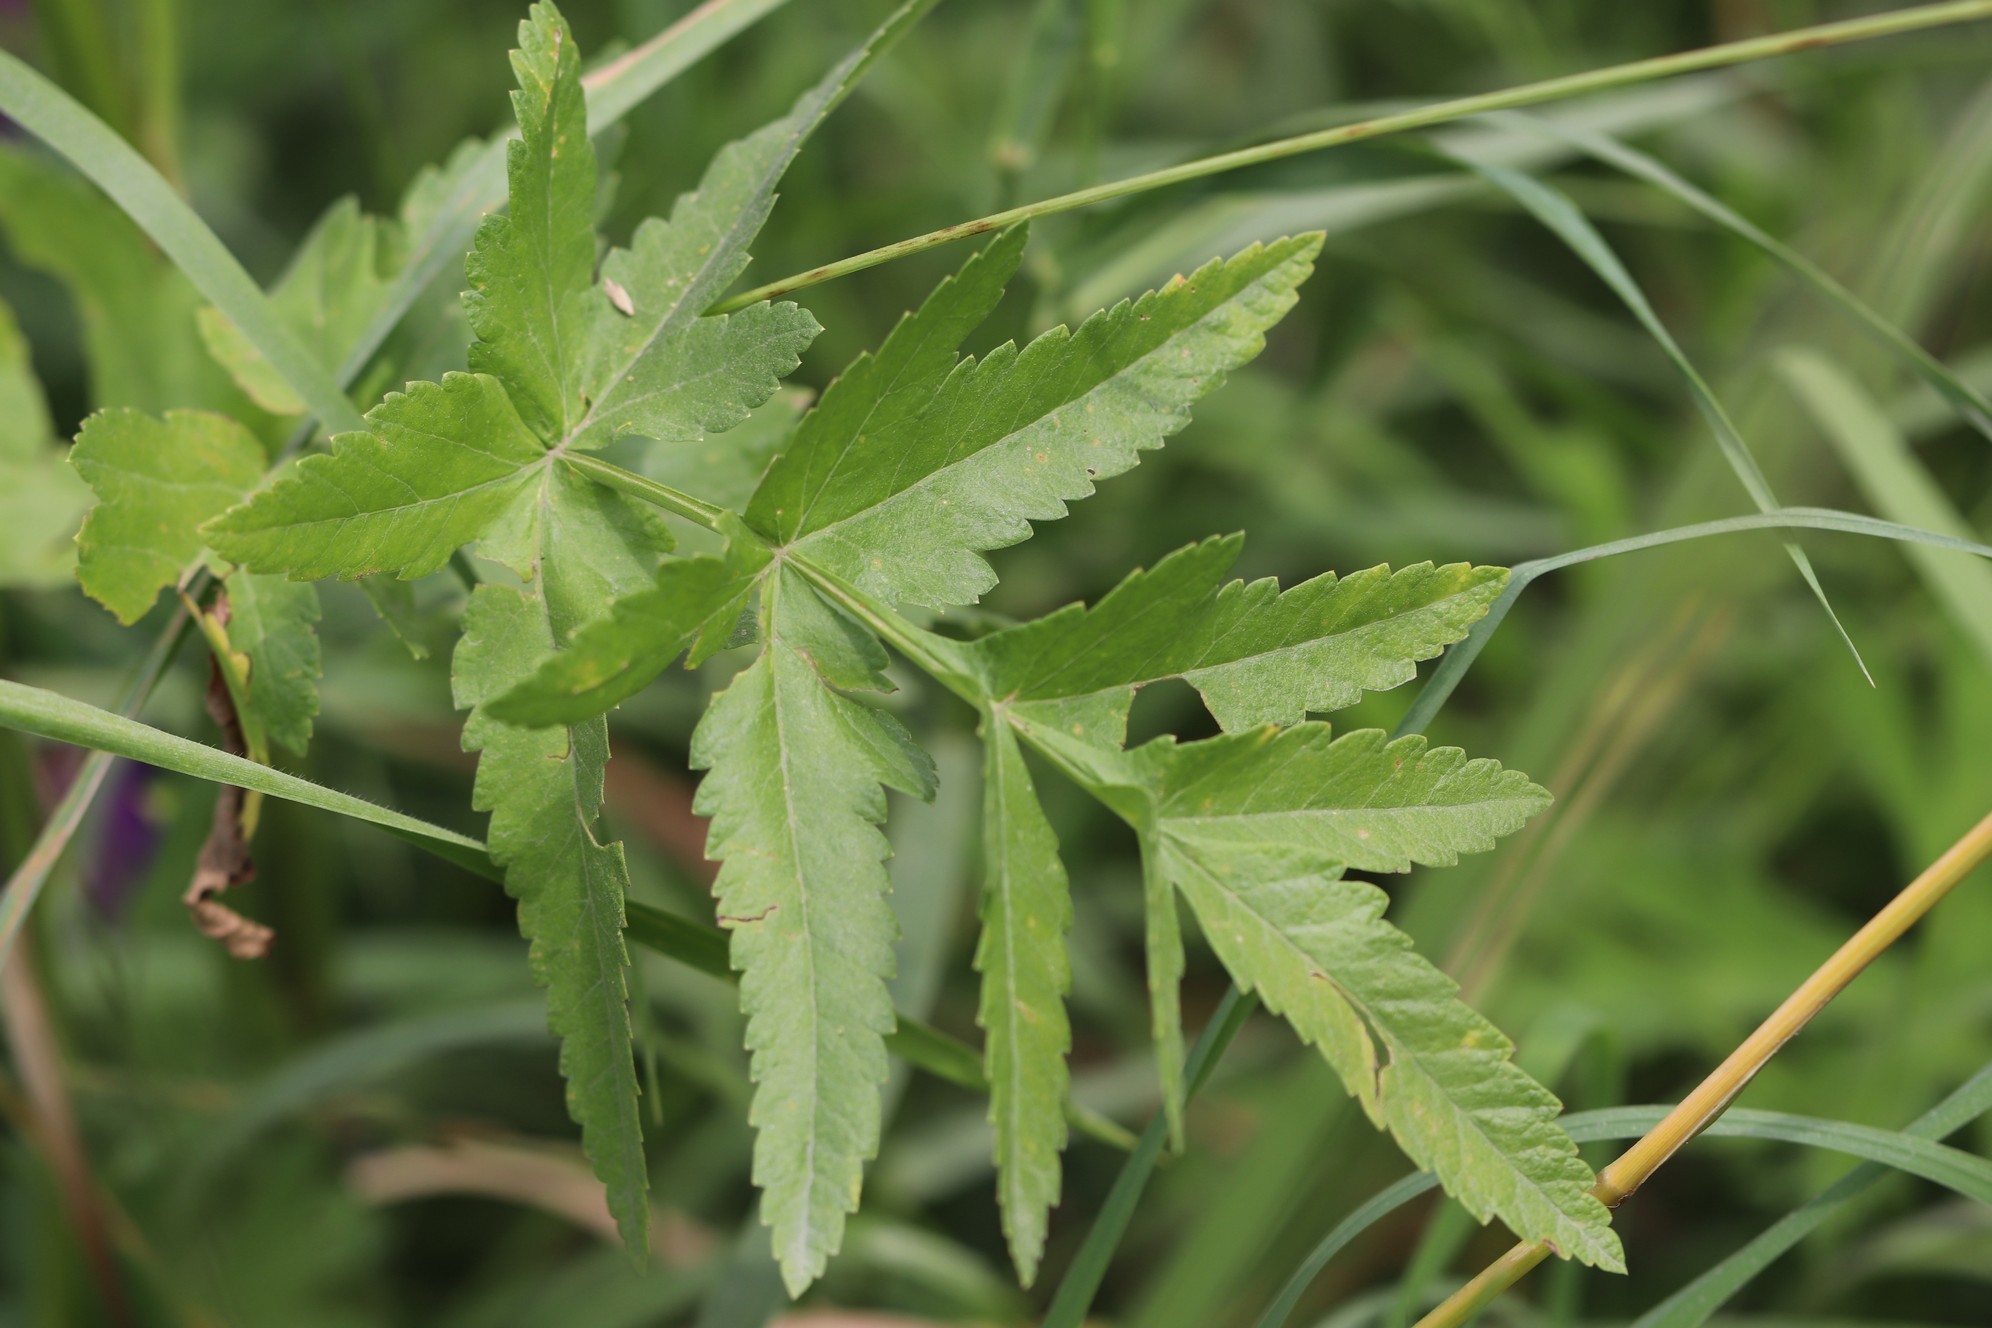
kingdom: Plantae
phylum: Tracheophyta
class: Magnoliopsida
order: Apiales
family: Apiaceae
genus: Pastinaca
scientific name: Pastinaca sativa
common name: Wild parsnip
